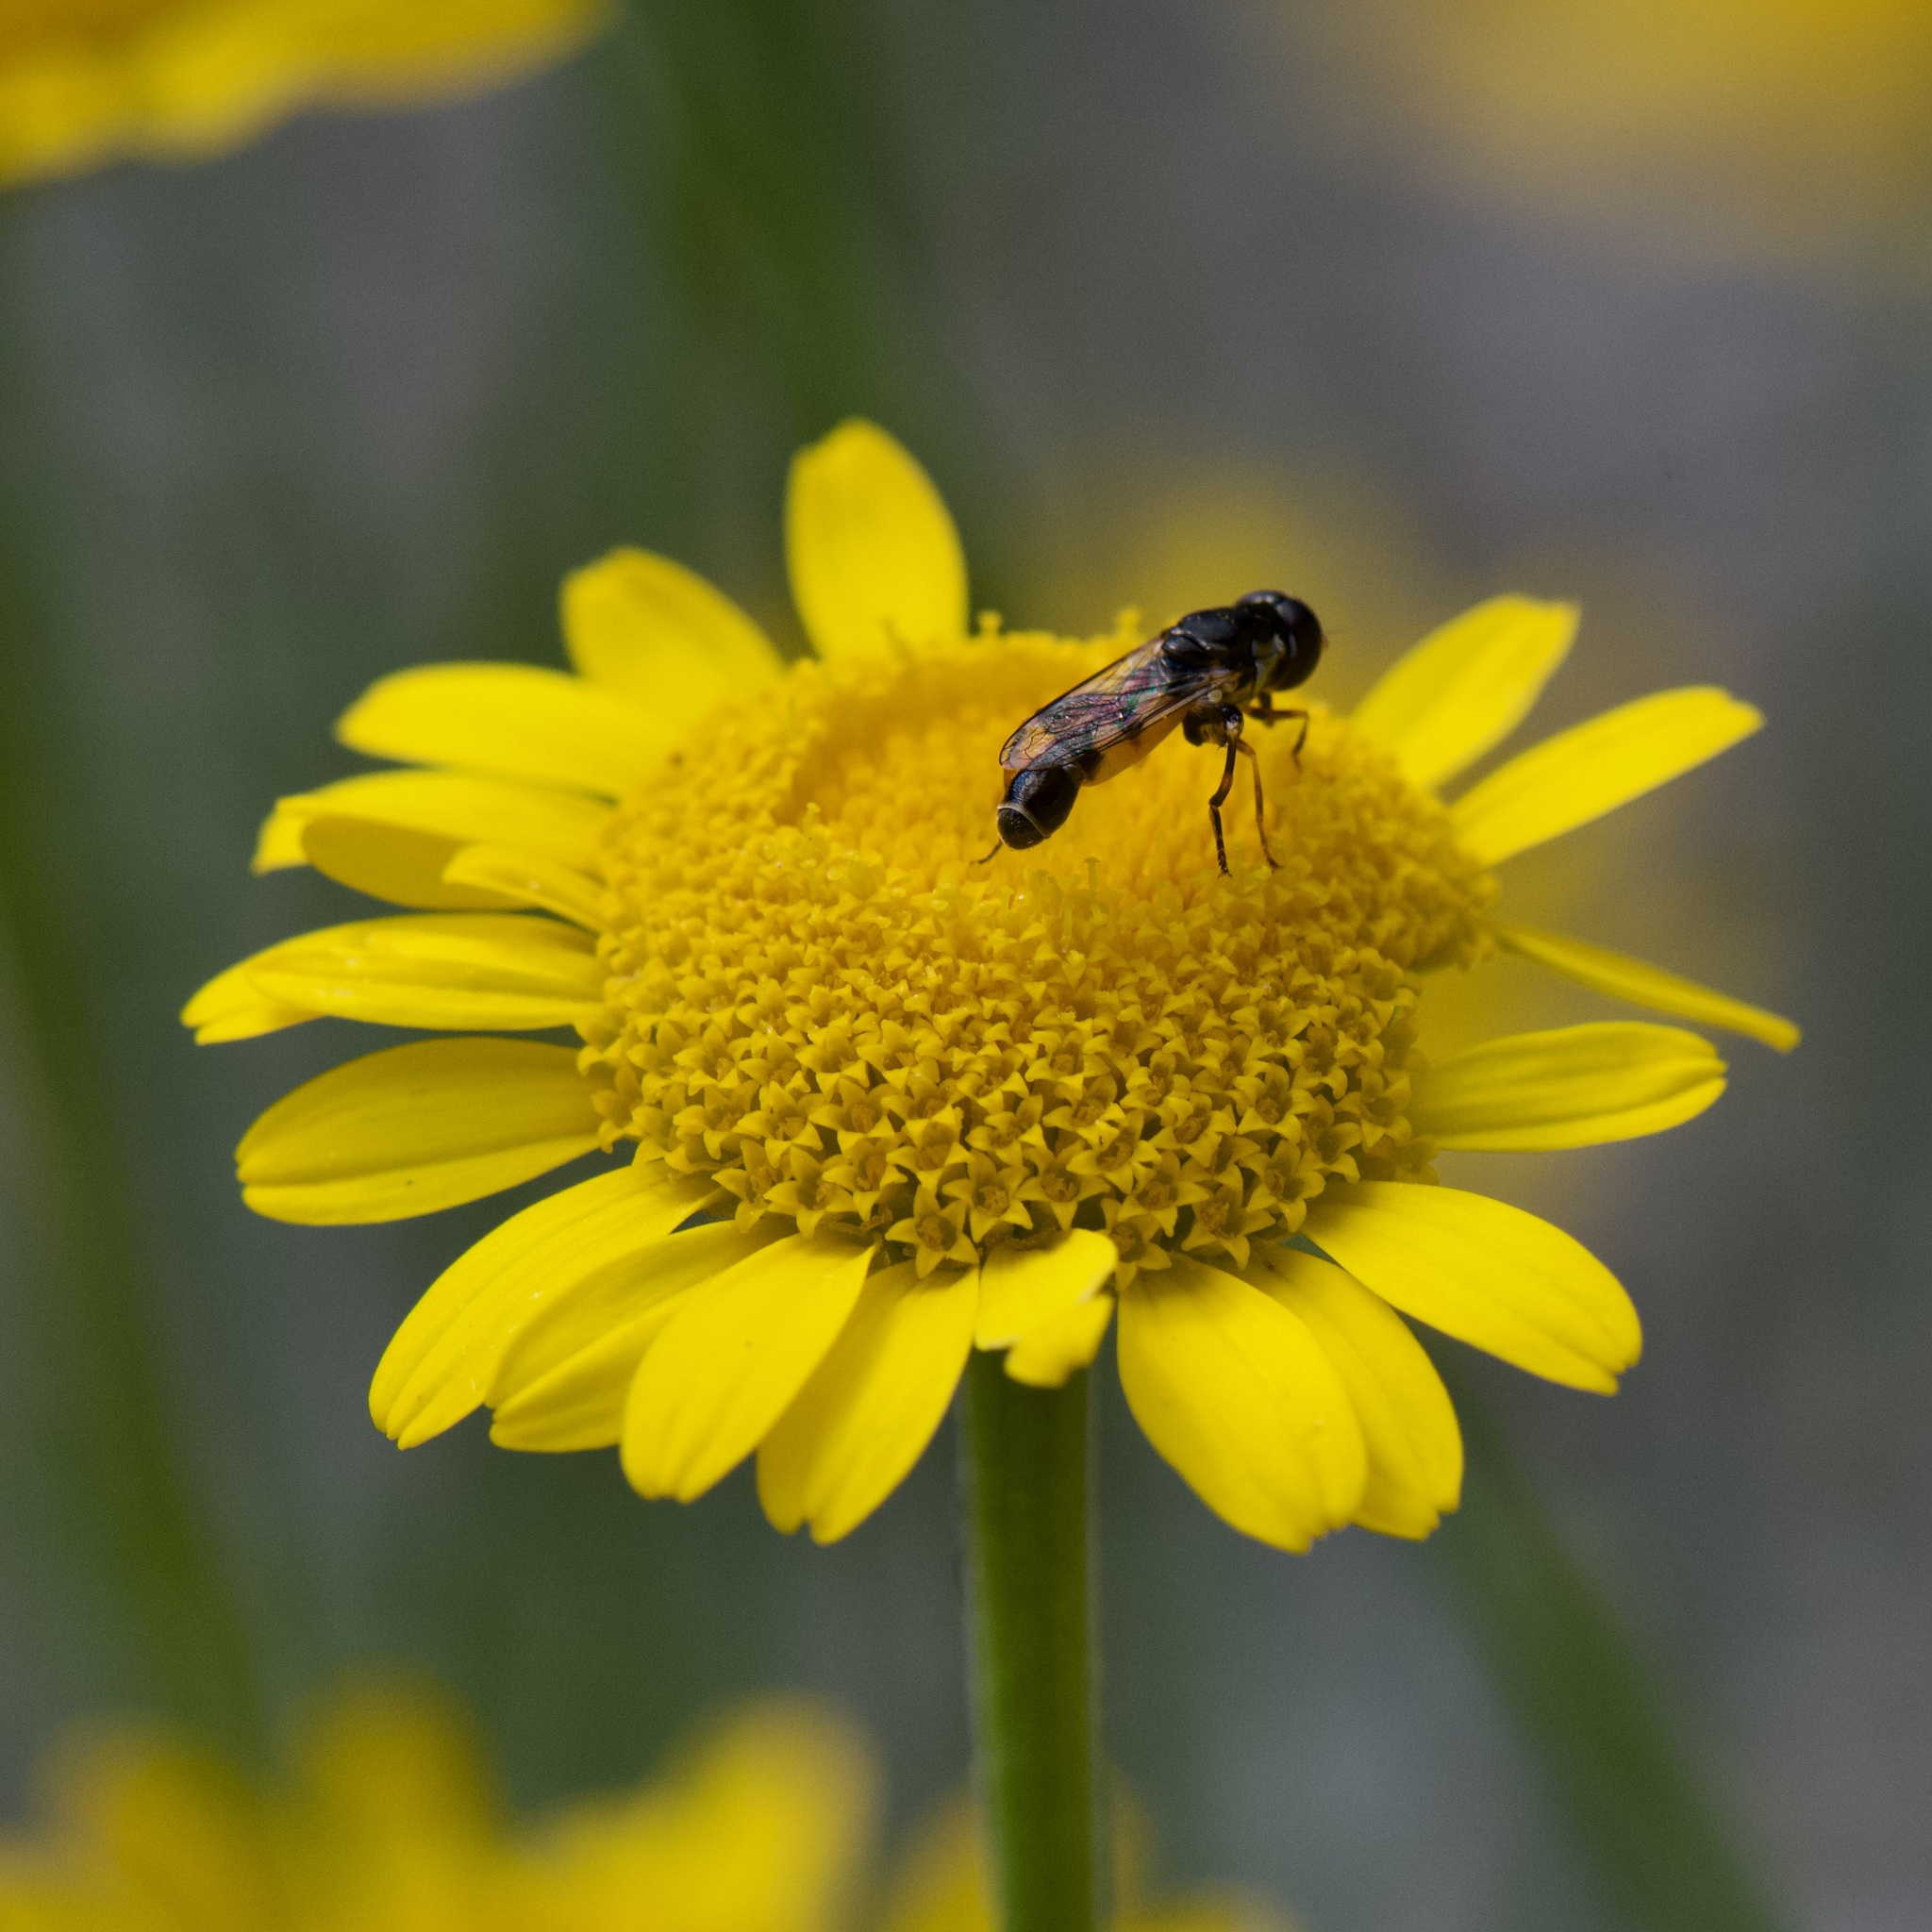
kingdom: Animalia
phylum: Arthropoda
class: Insecta
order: Diptera
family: Syrphidae
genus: Syritta
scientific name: Syritta pipiens
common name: Hover fly
